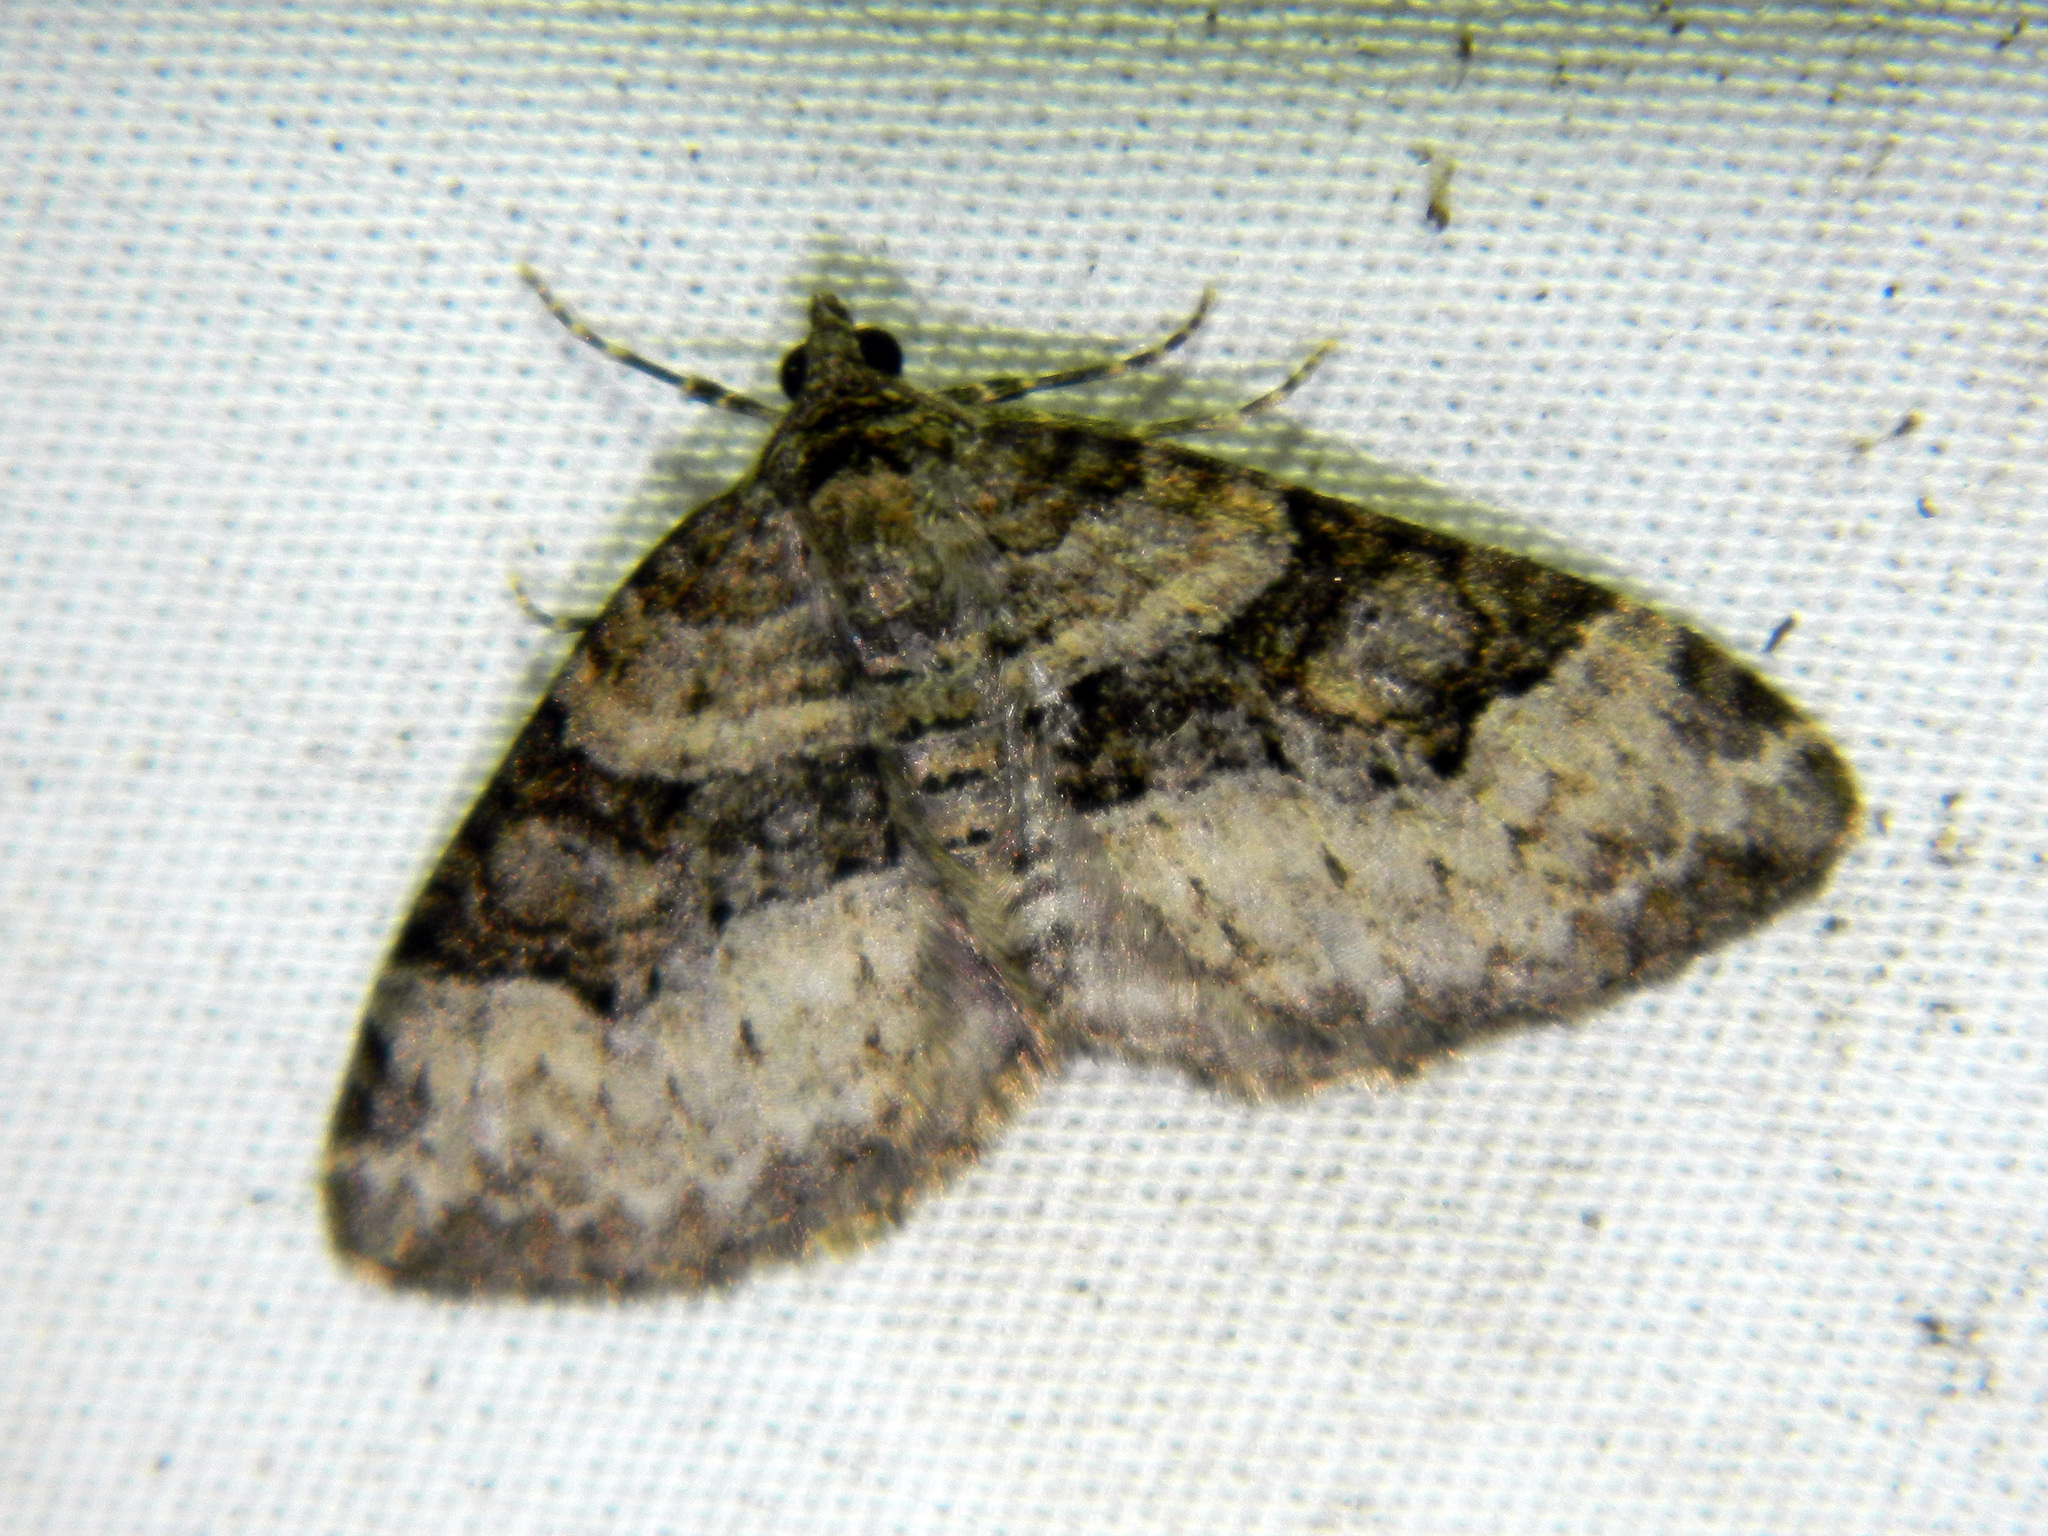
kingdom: Animalia
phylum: Arthropoda
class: Insecta
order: Lepidoptera
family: Geometridae
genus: Xanthorhoe
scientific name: Xanthorhoe lacustrata
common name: Toothed brown carpet
